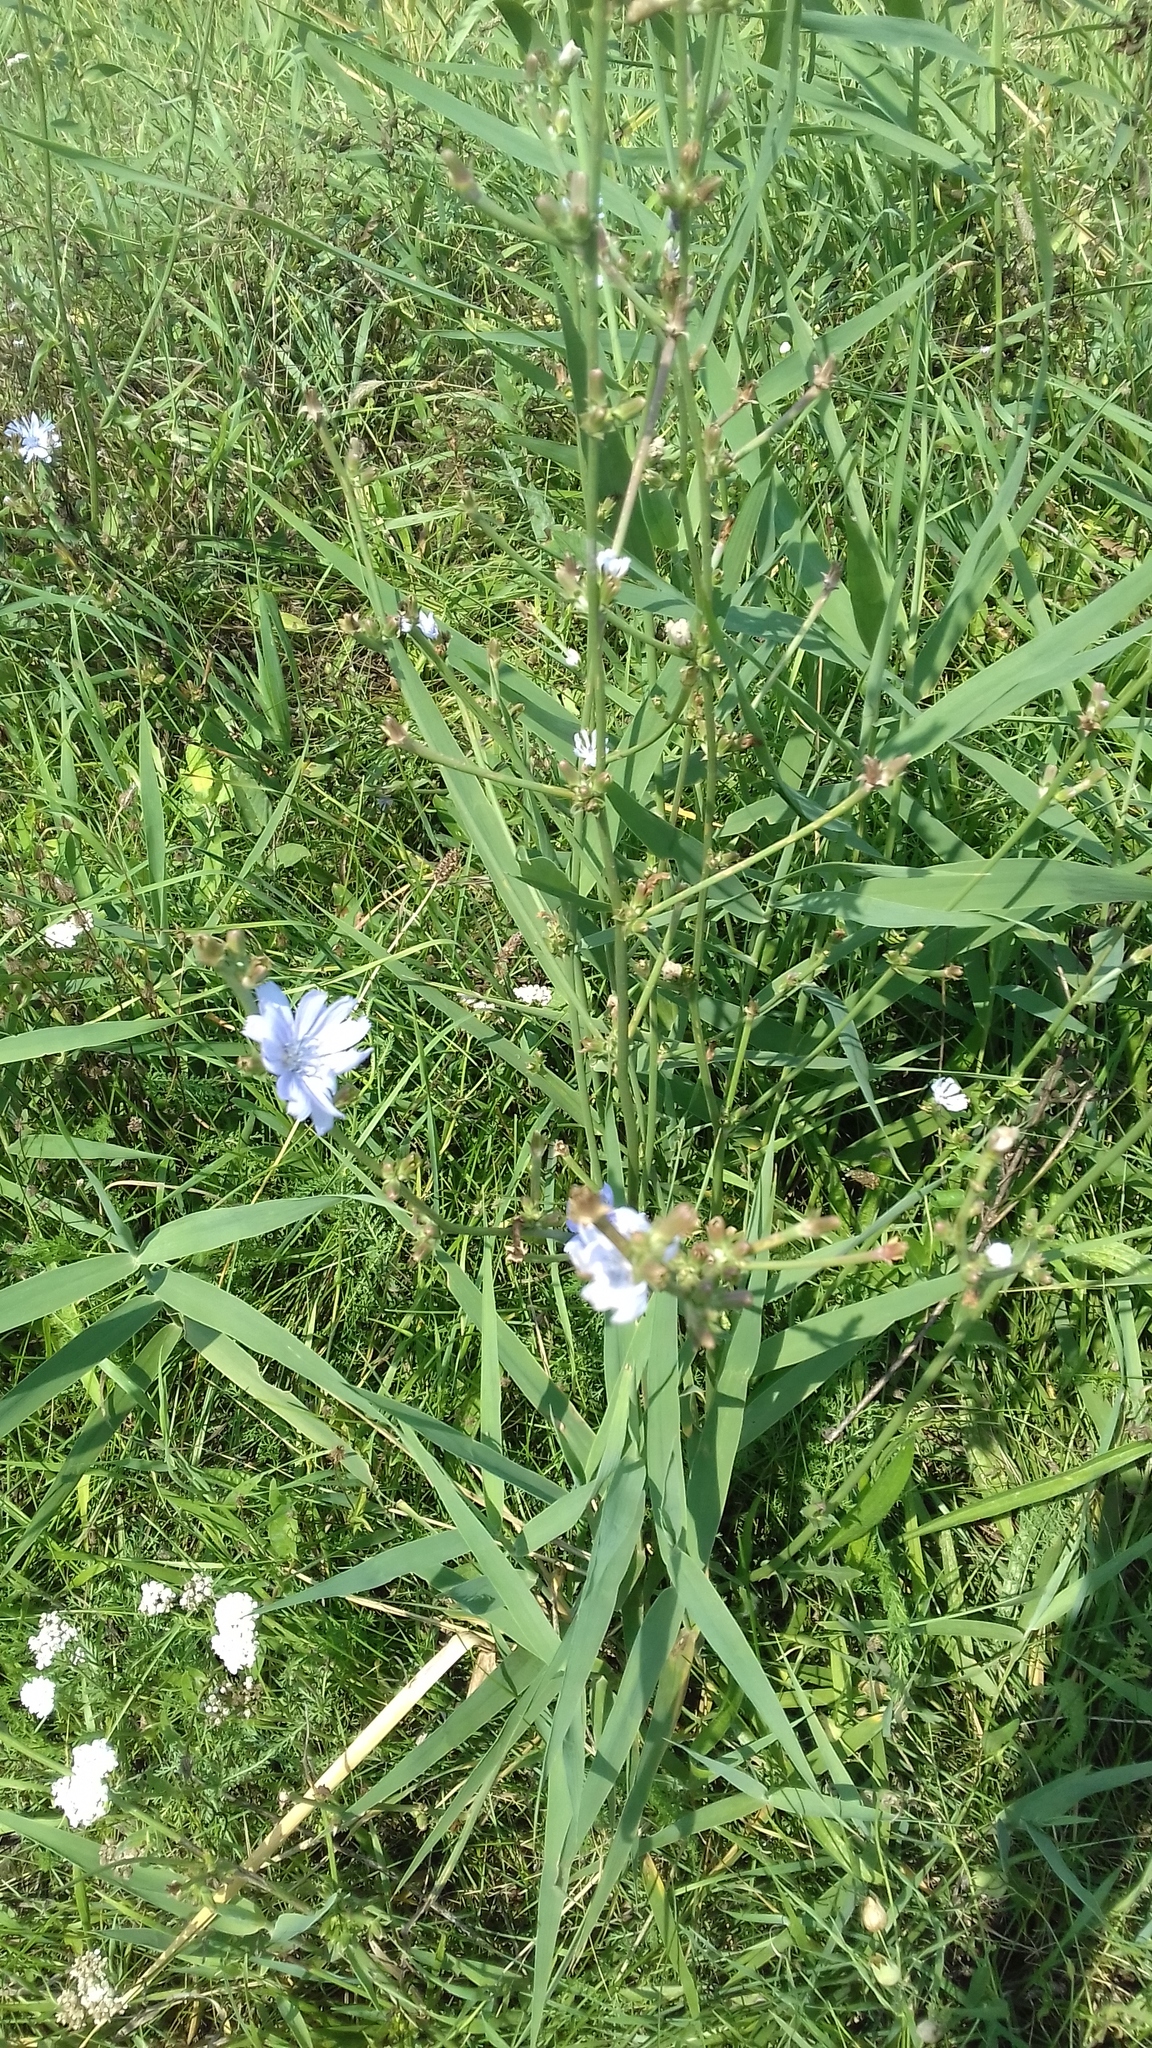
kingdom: Plantae
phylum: Tracheophyta
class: Magnoliopsida
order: Asterales
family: Asteraceae
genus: Cichorium
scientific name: Cichorium intybus
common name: Chicory
